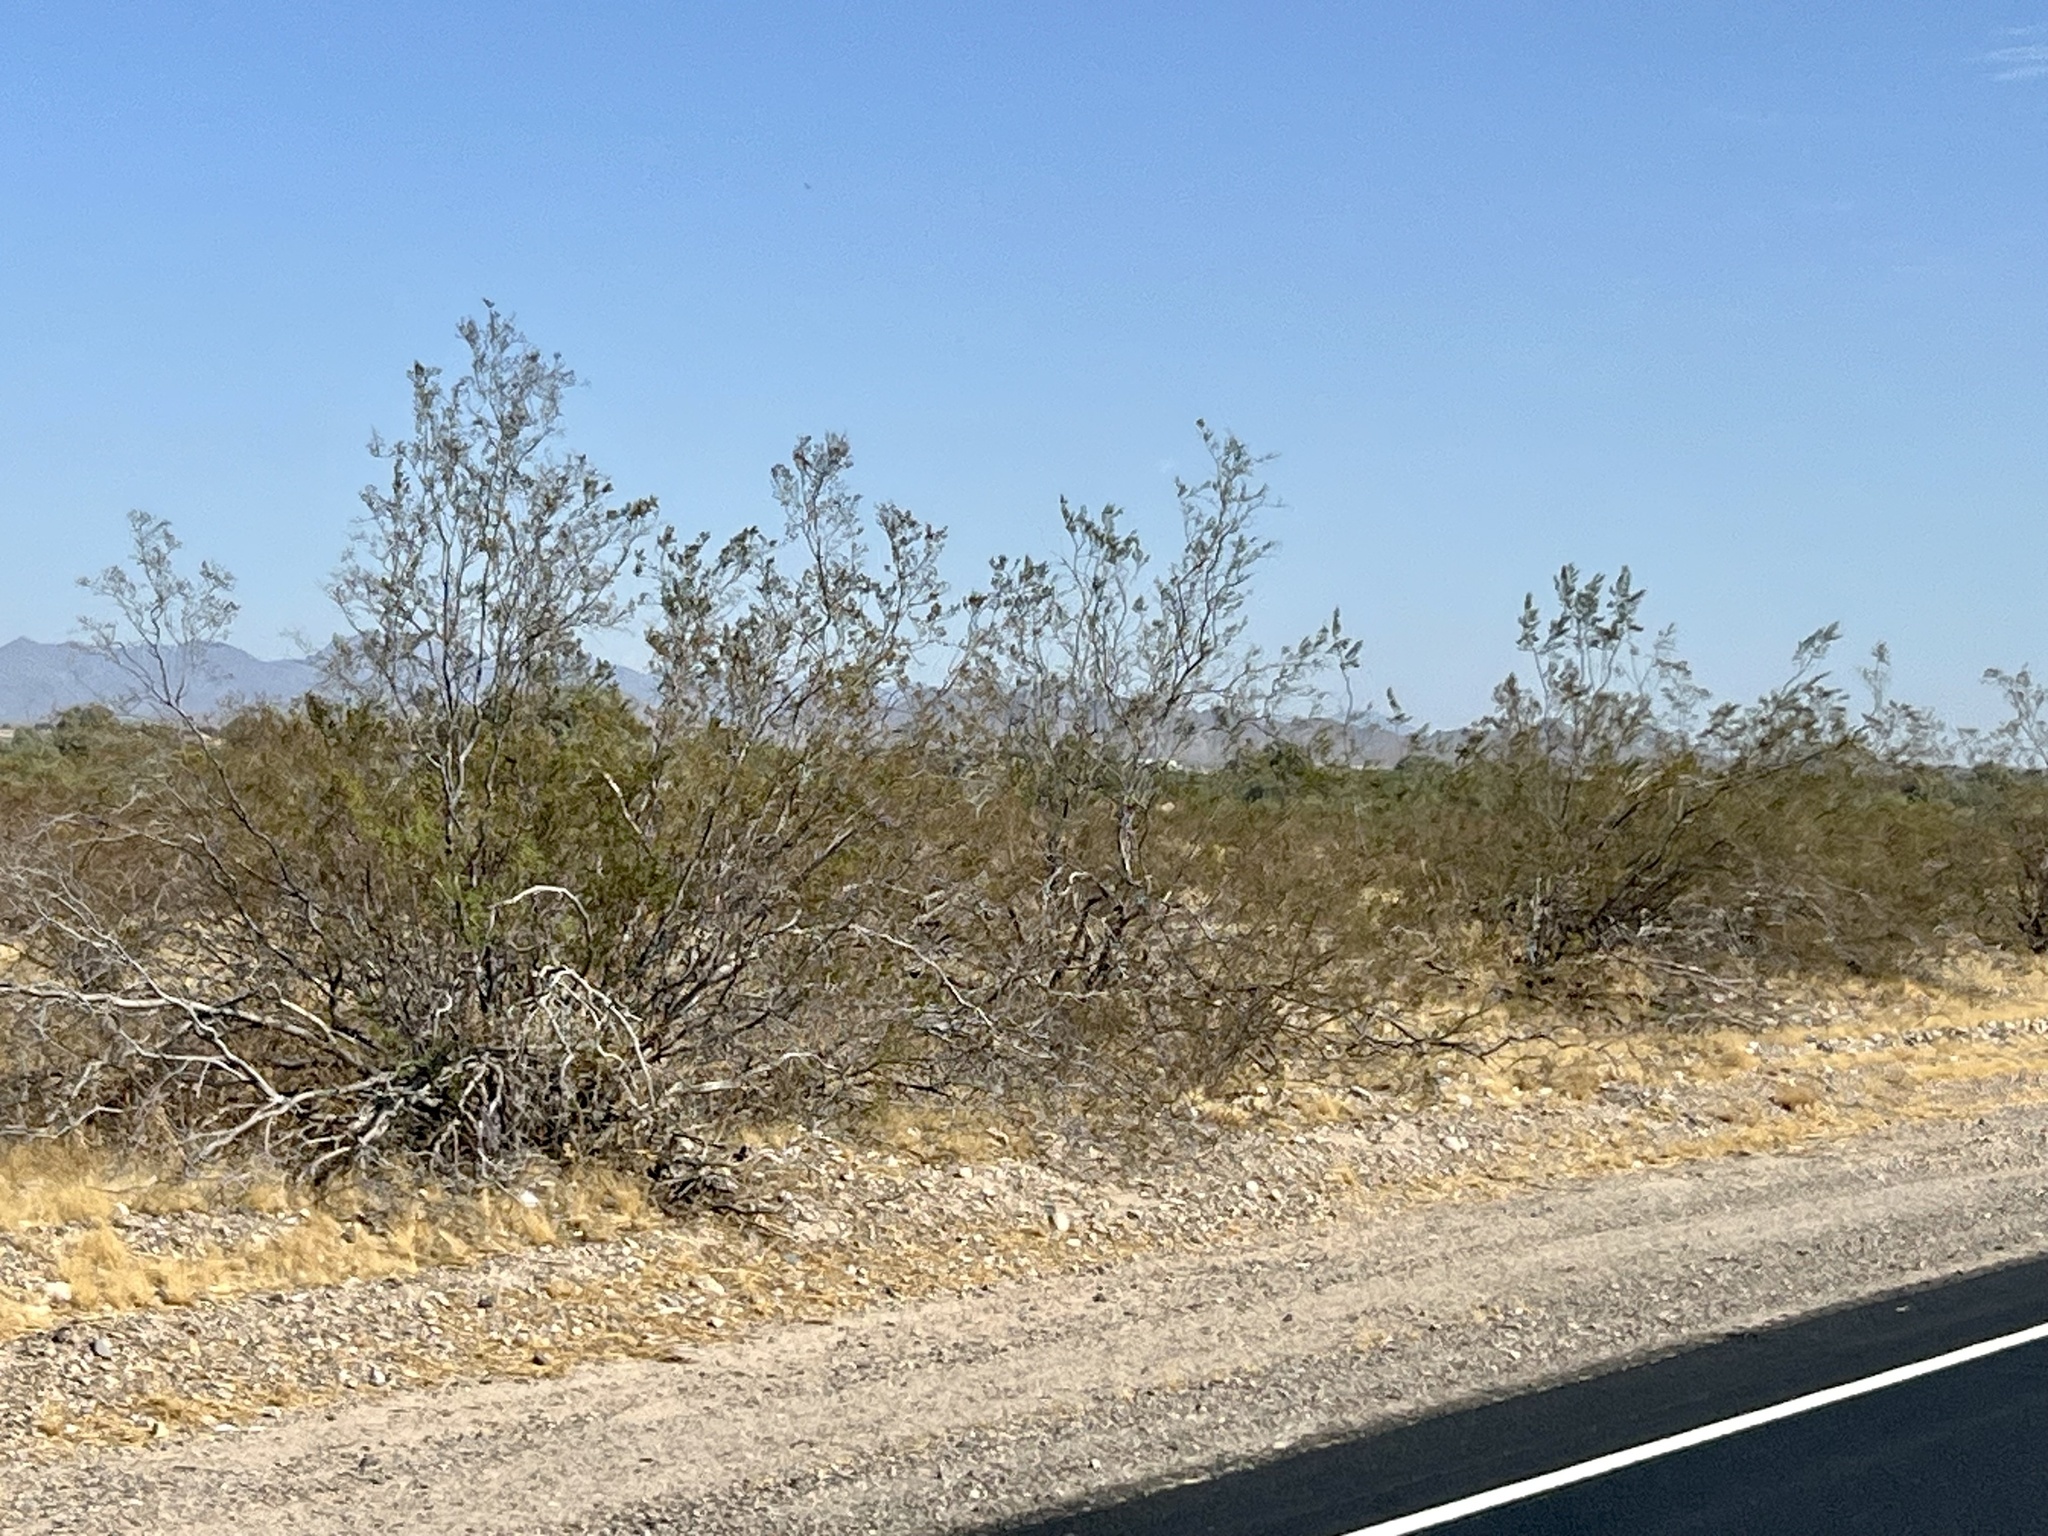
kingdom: Plantae
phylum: Tracheophyta
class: Magnoliopsida
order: Zygophyllales
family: Zygophyllaceae
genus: Larrea
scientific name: Larrea tridentata
